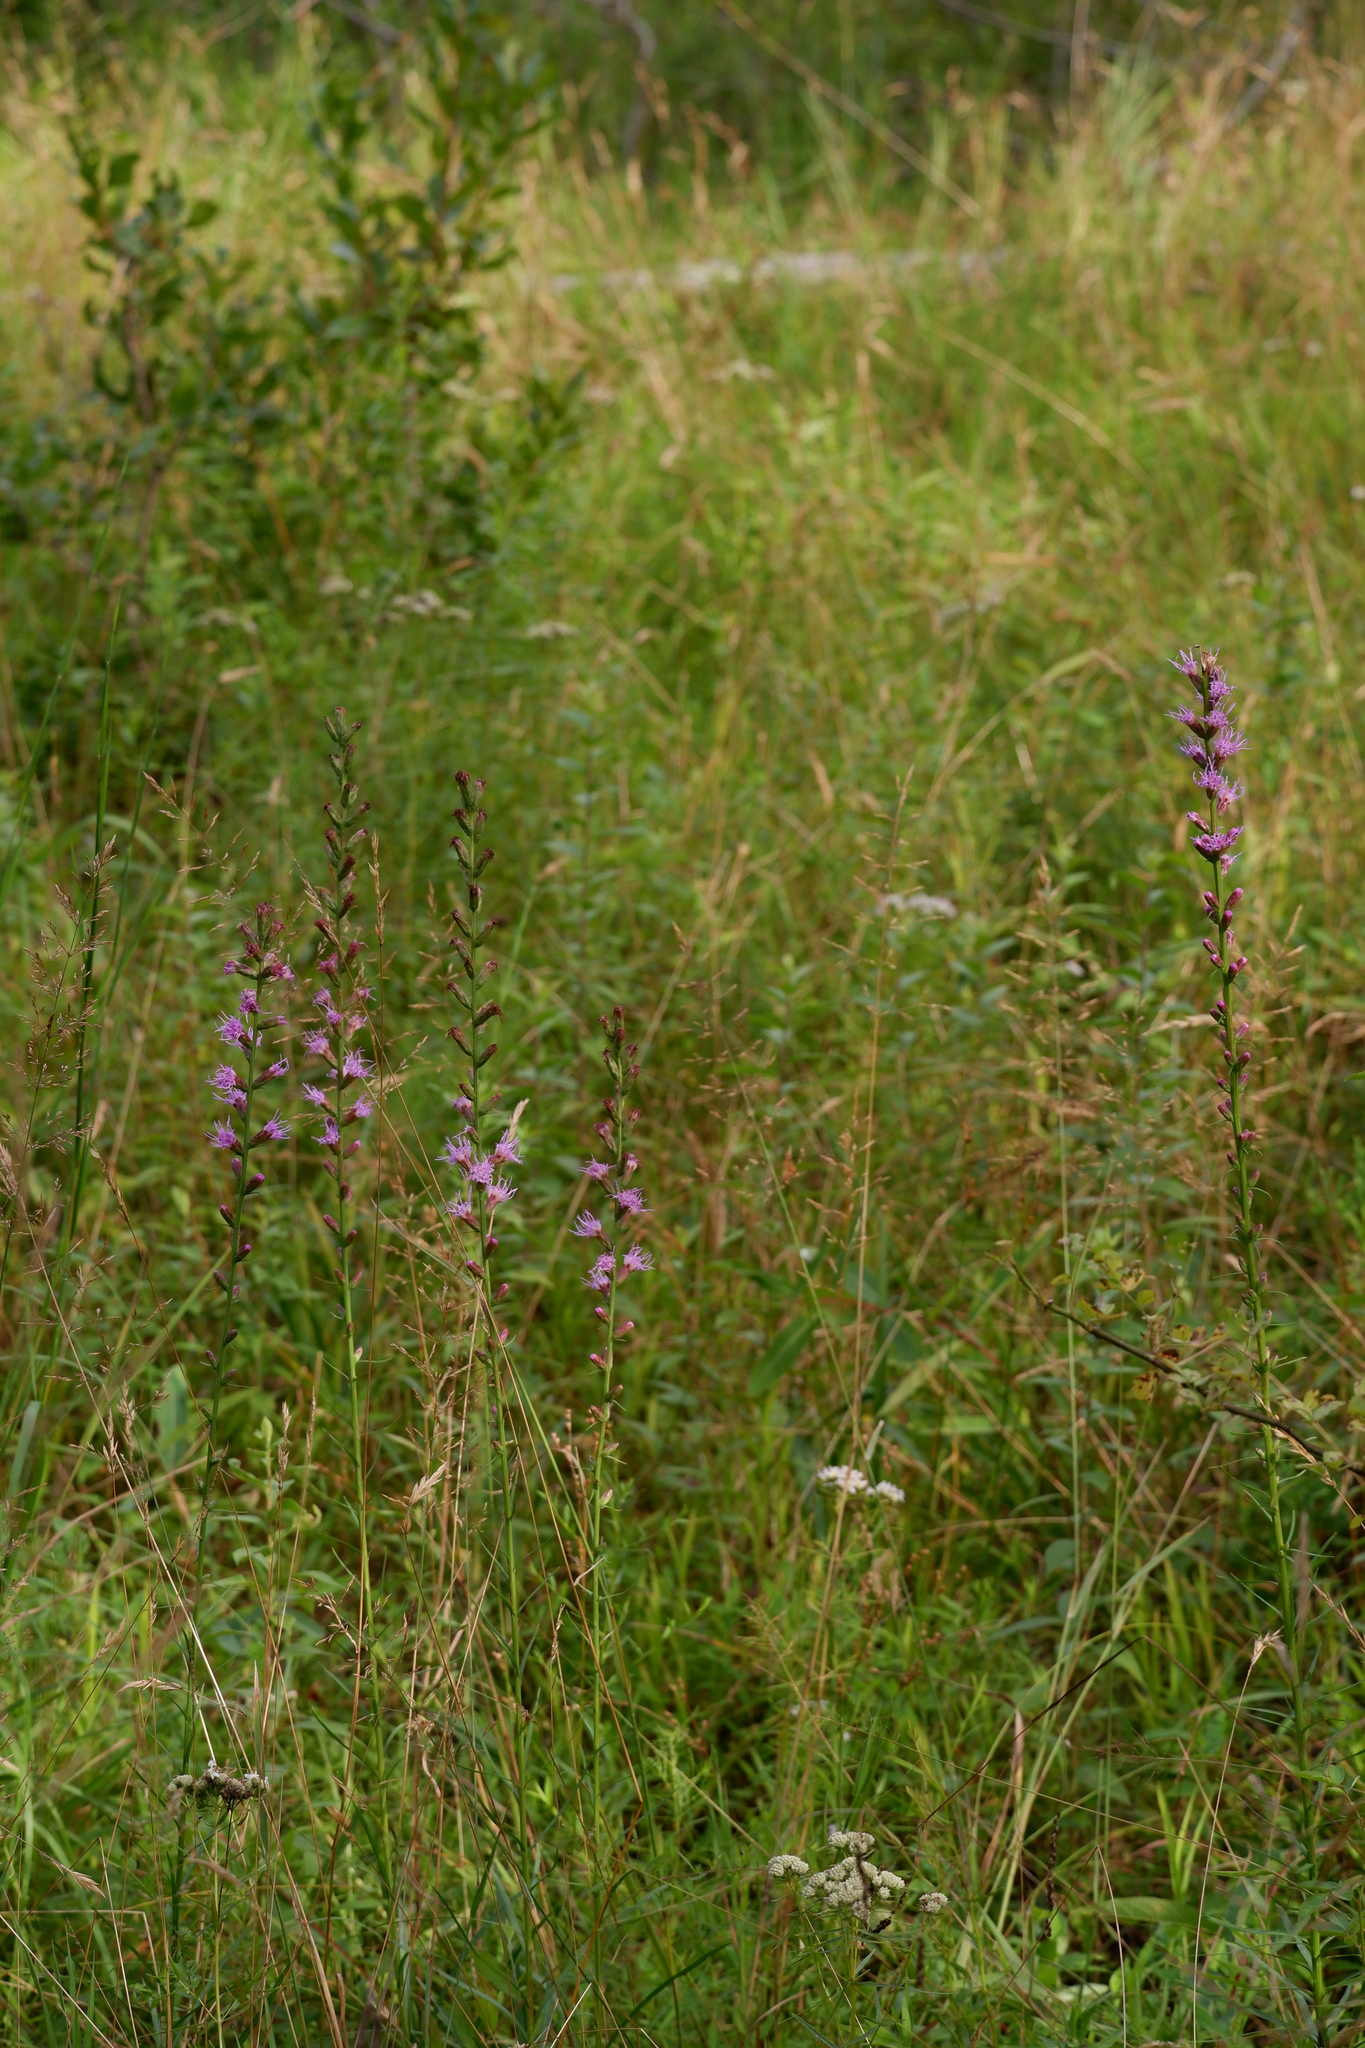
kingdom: Plantae
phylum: Tracheophyta
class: Magnoliopsida
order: Asterales
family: Asteraceae
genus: Liatris
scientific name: Liatris spicata
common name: Florist gayfeather
